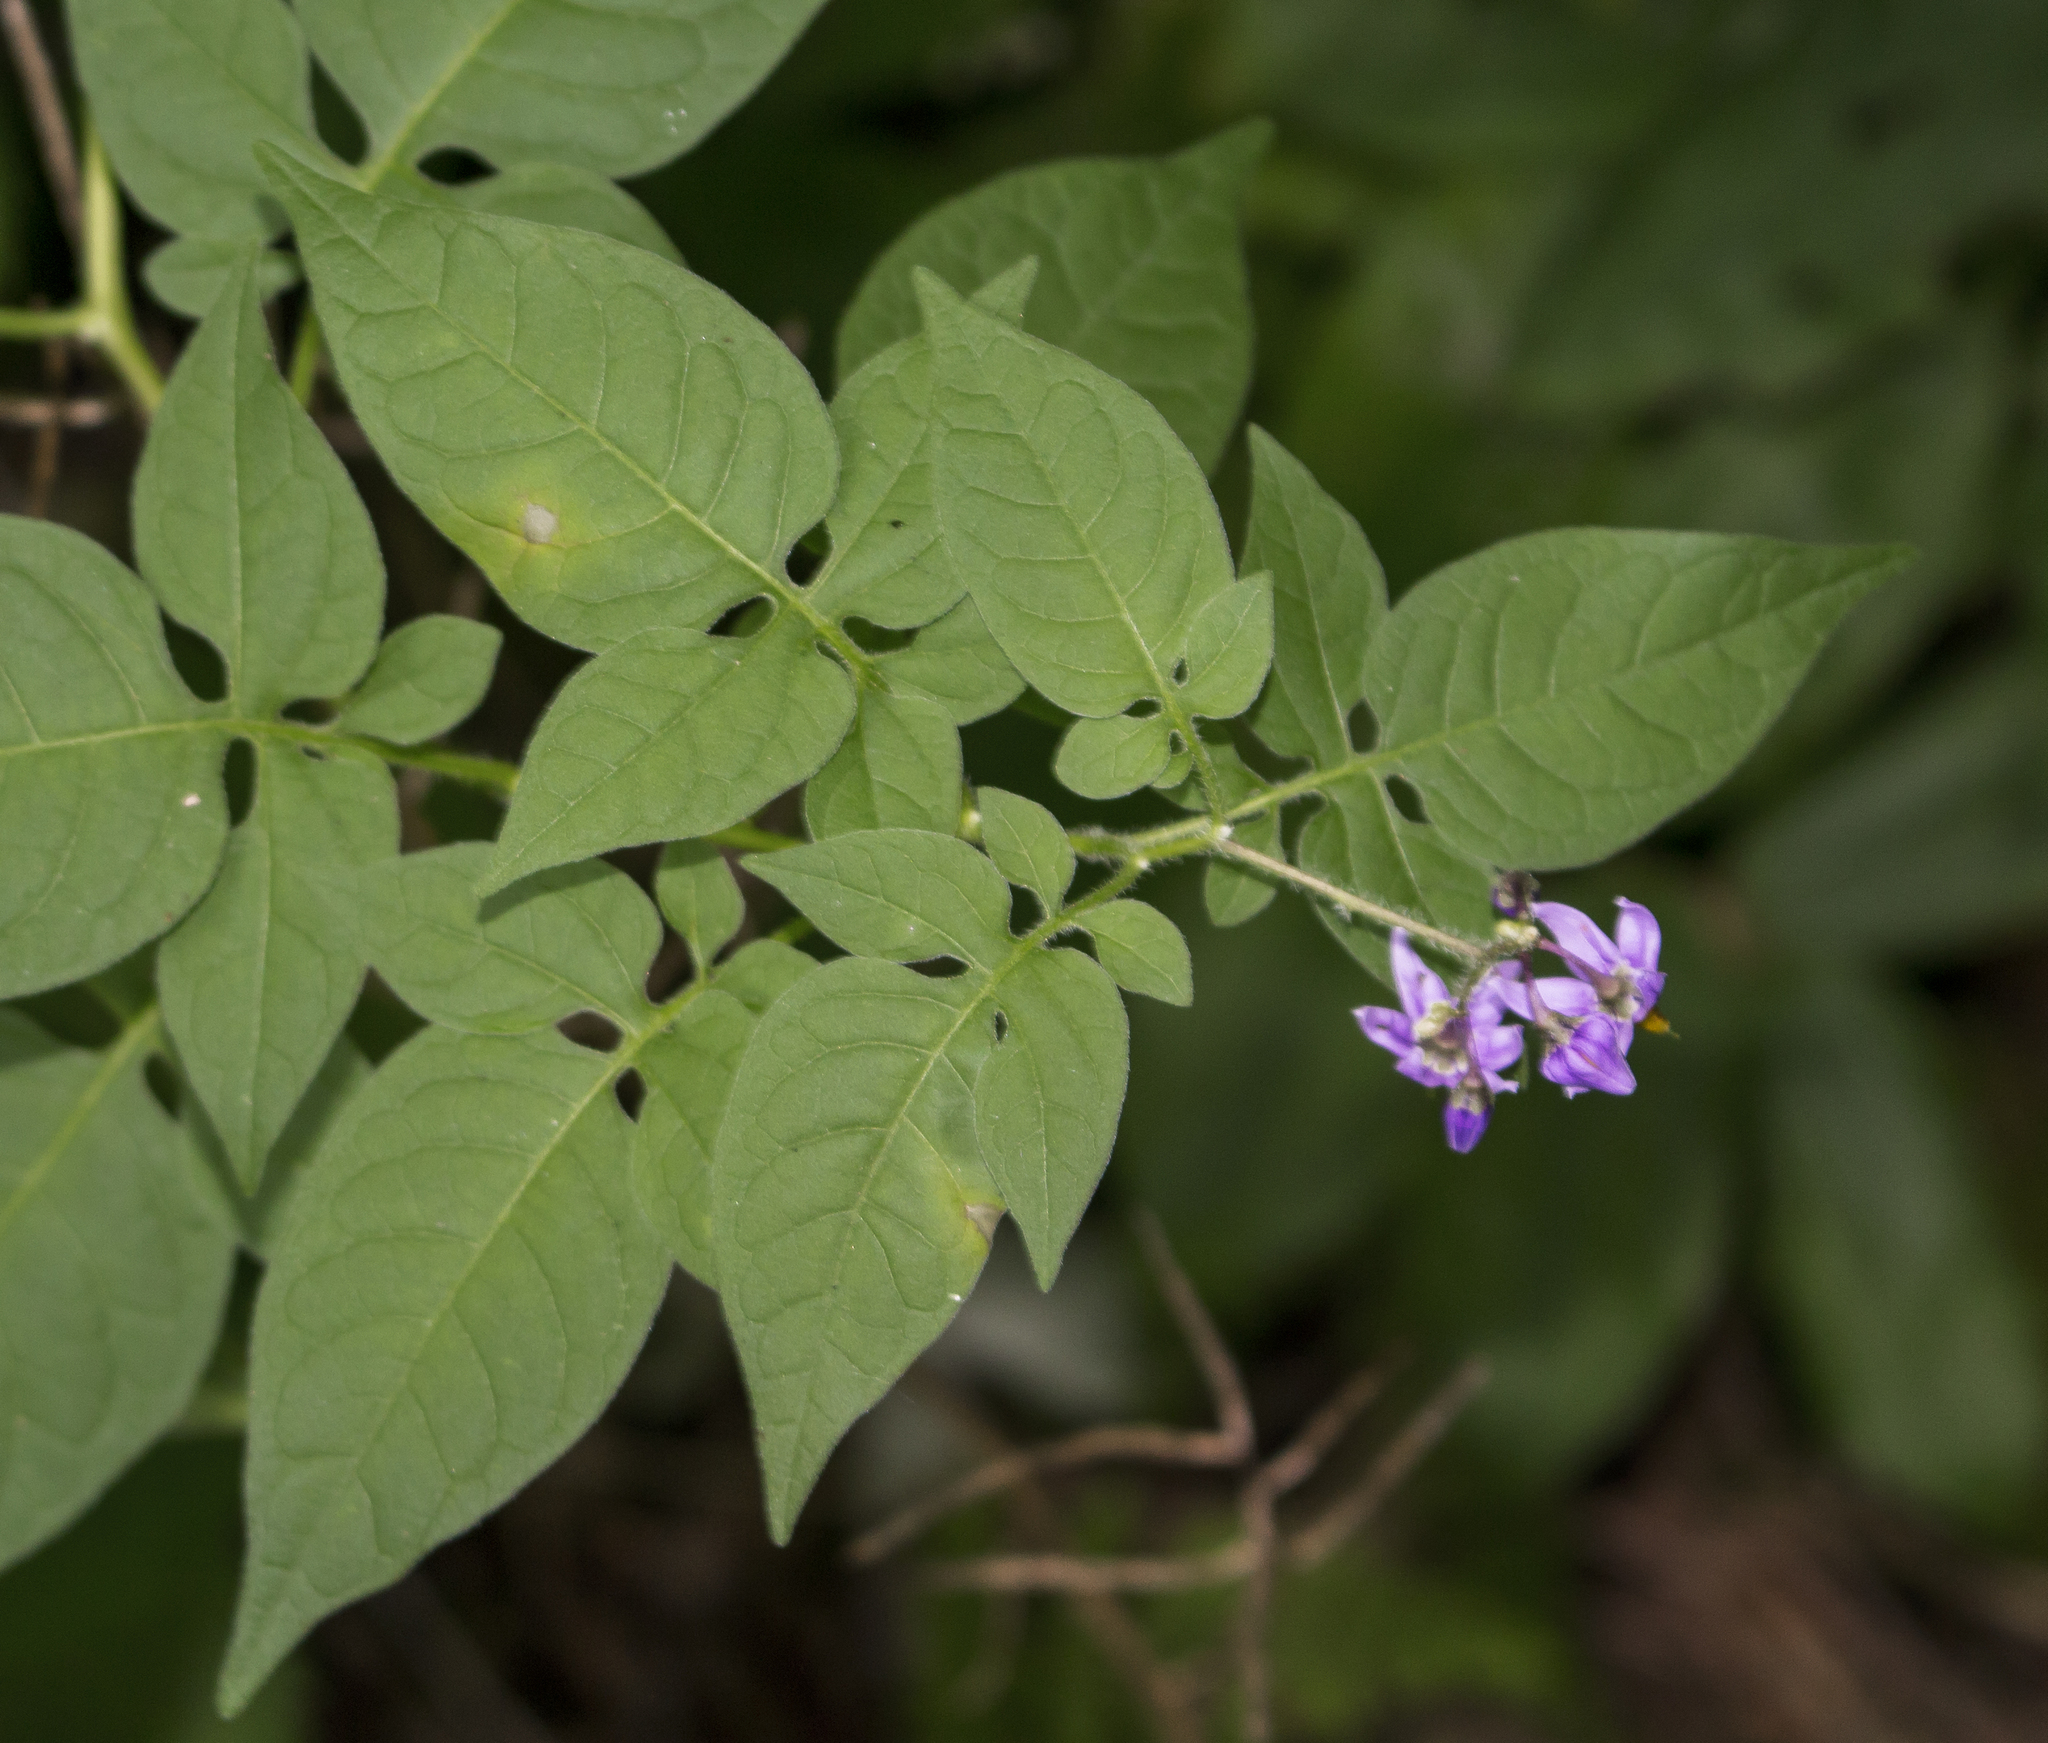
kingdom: Plantae
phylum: Tracheophyta
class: Magnoliopsida
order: Solanales
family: Solanaceae
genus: Solanum
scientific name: Solanum dulcamara
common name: Climbing nightshade
